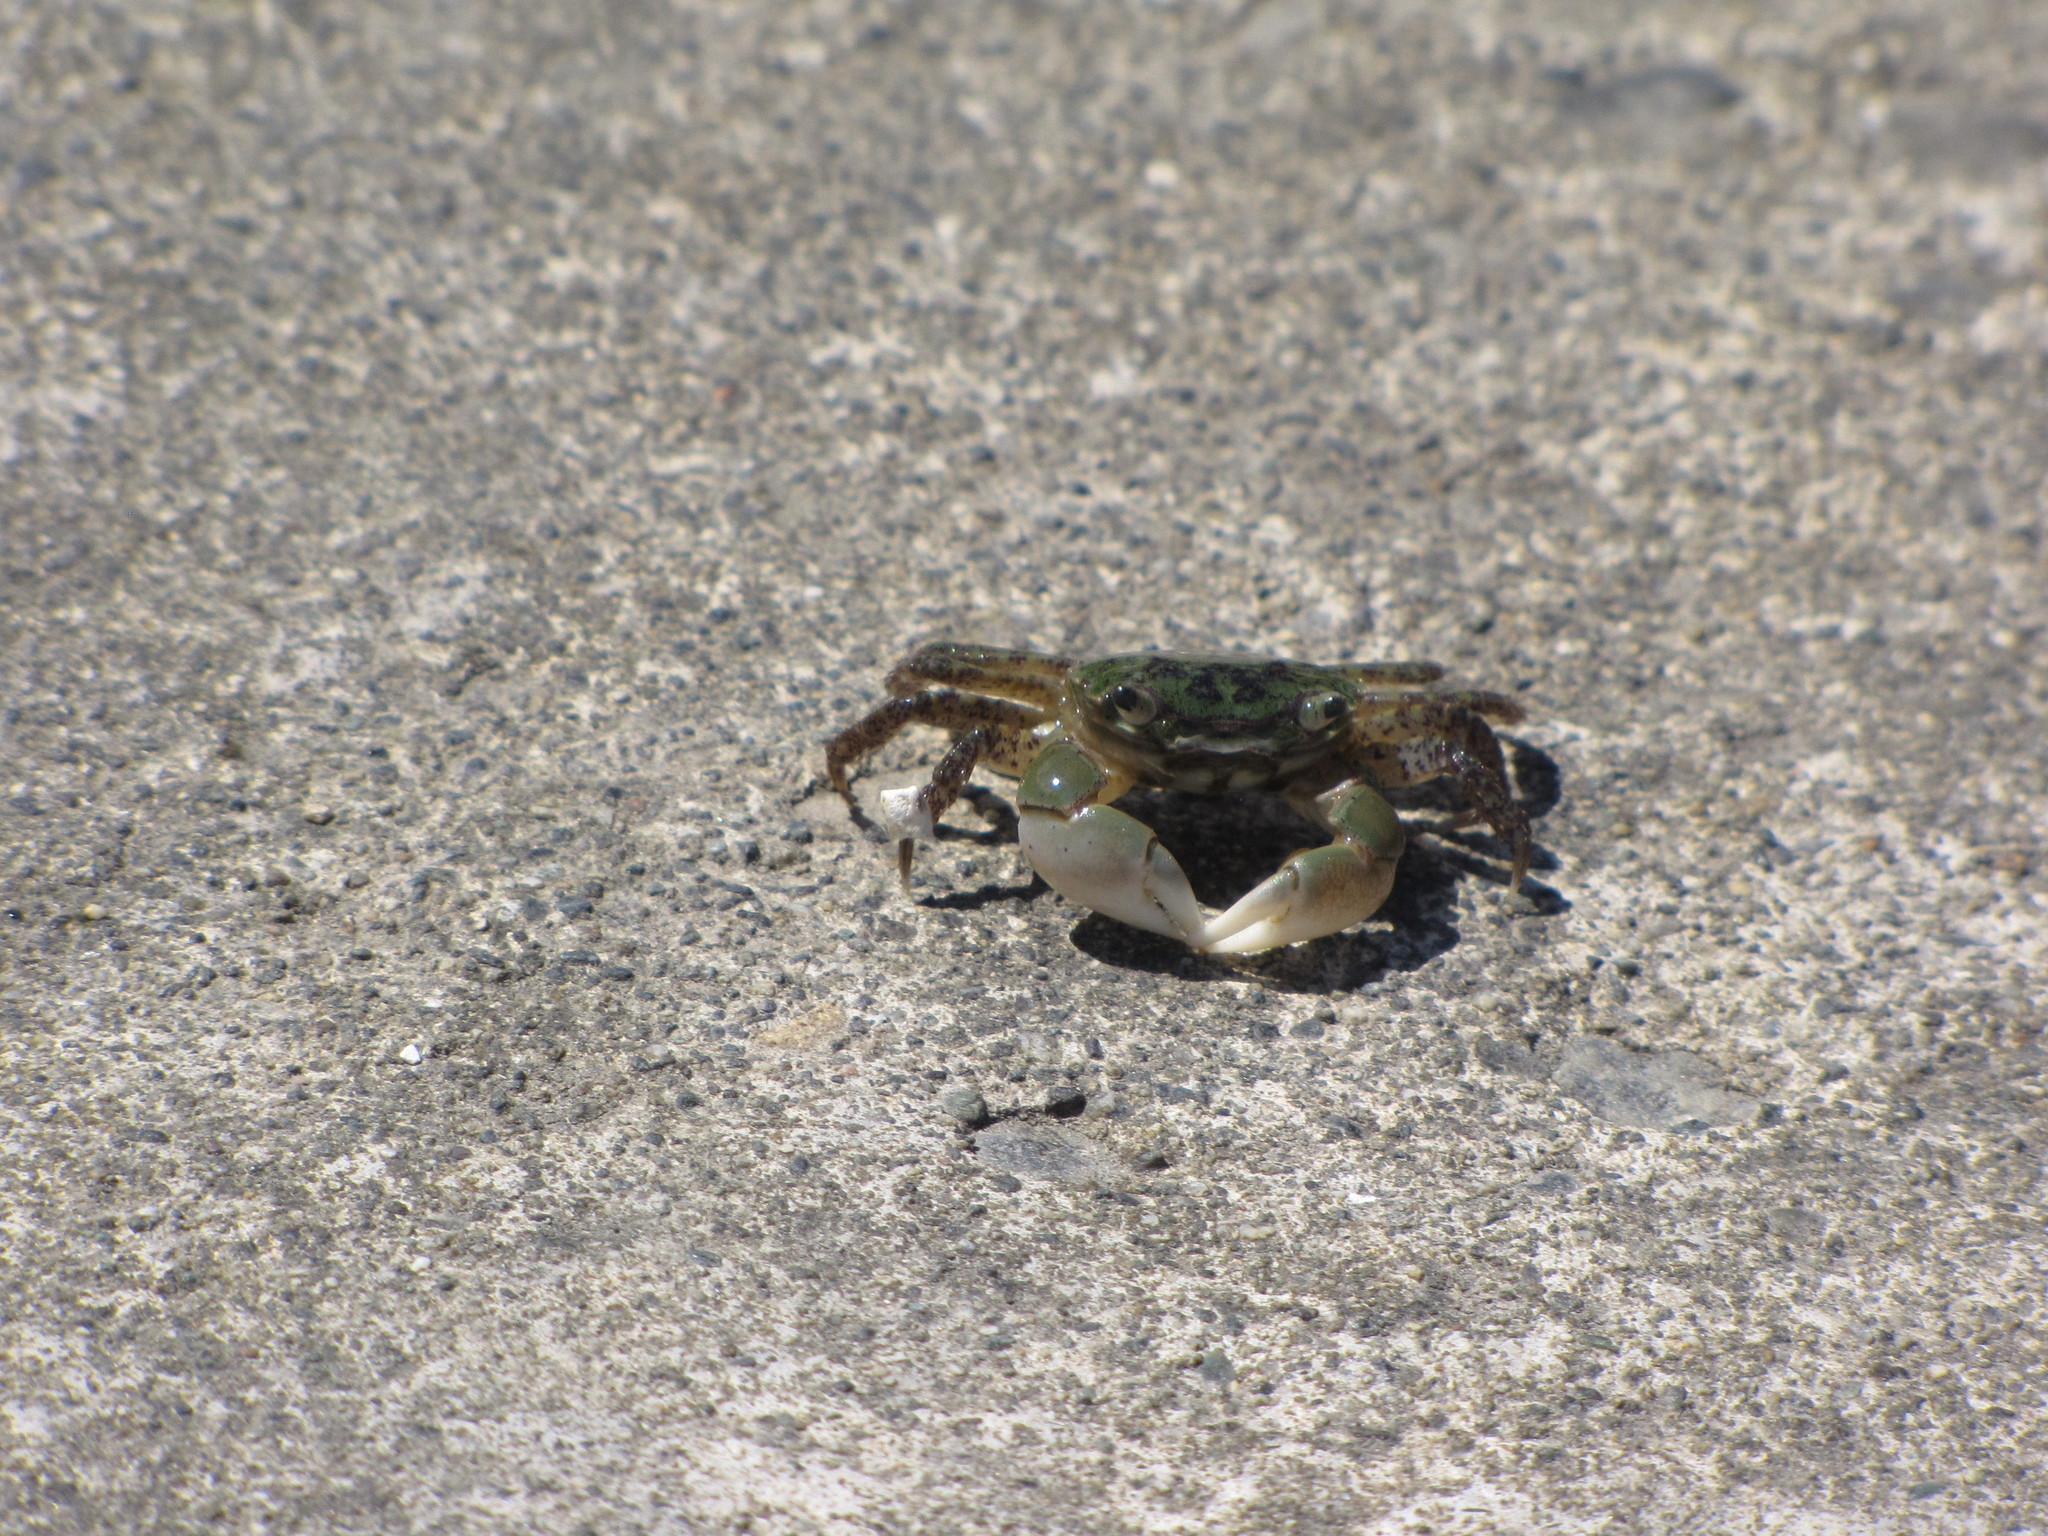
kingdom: Animalia
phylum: Arthropoda
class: Malacostraca
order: Decapoda
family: Varunidae
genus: Hemigrapsus
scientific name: Hemigrapsus oregonensis
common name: Yellow shore crab
